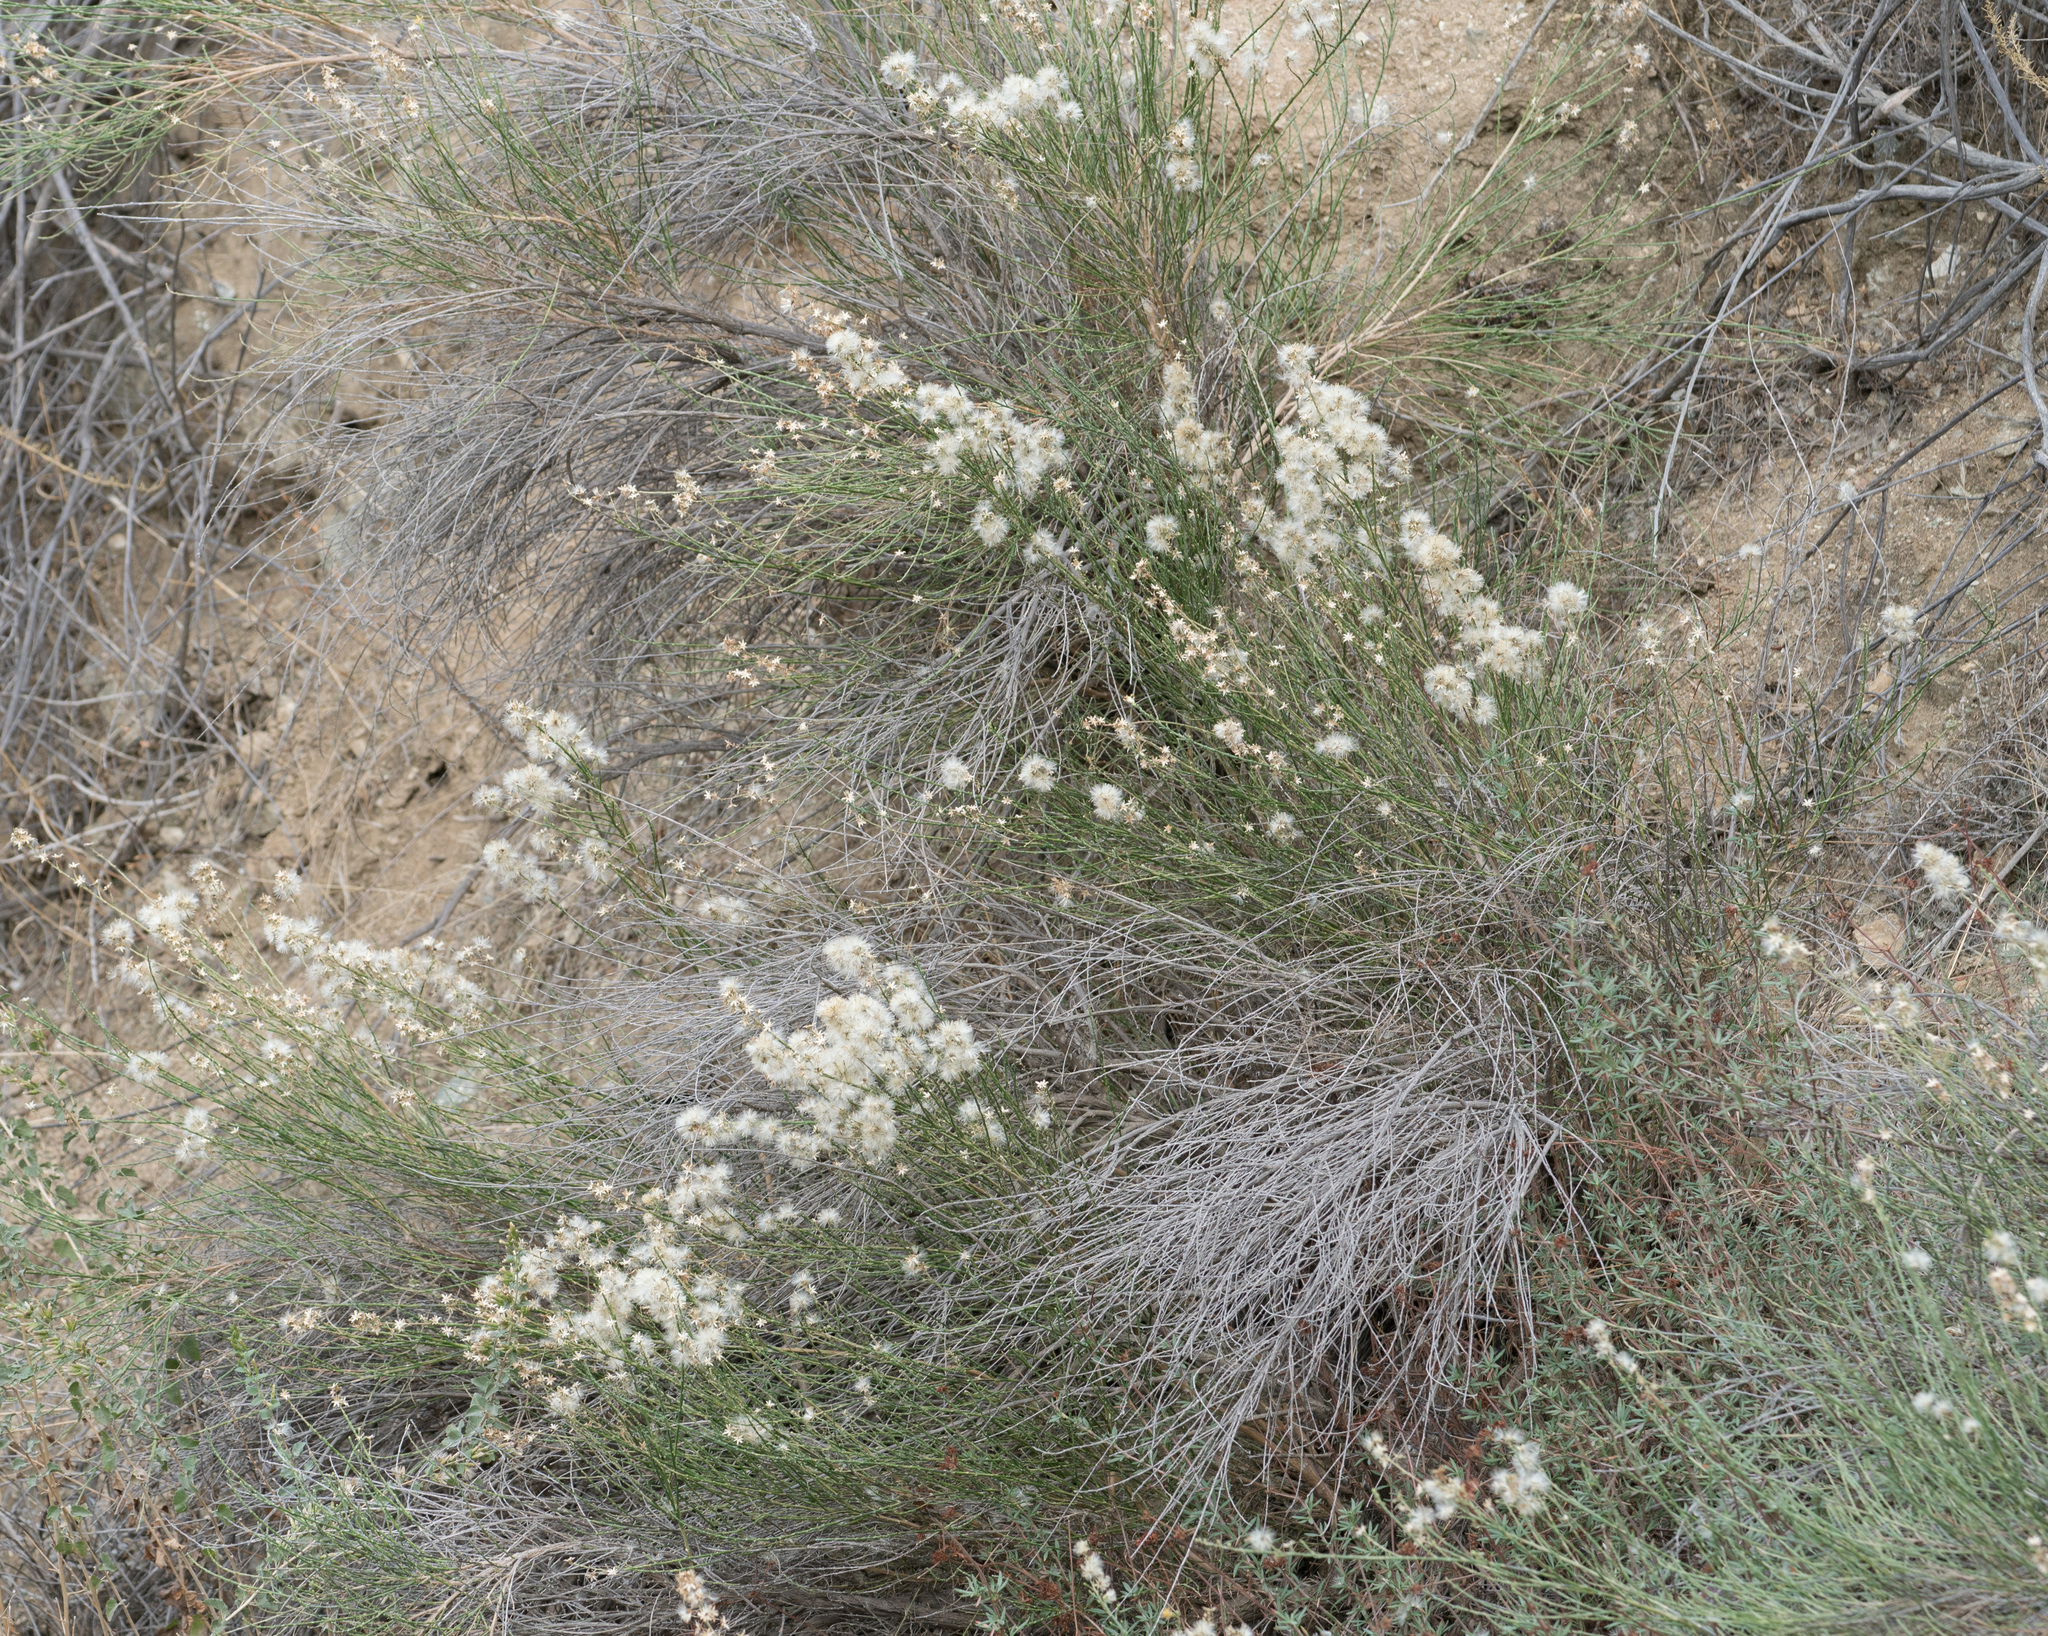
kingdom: Plantae
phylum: Tracheophyta
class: Magnoliopsida
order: Asterales
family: Asteraceae
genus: Lepidospartum
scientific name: Lepidospartum squamatum
